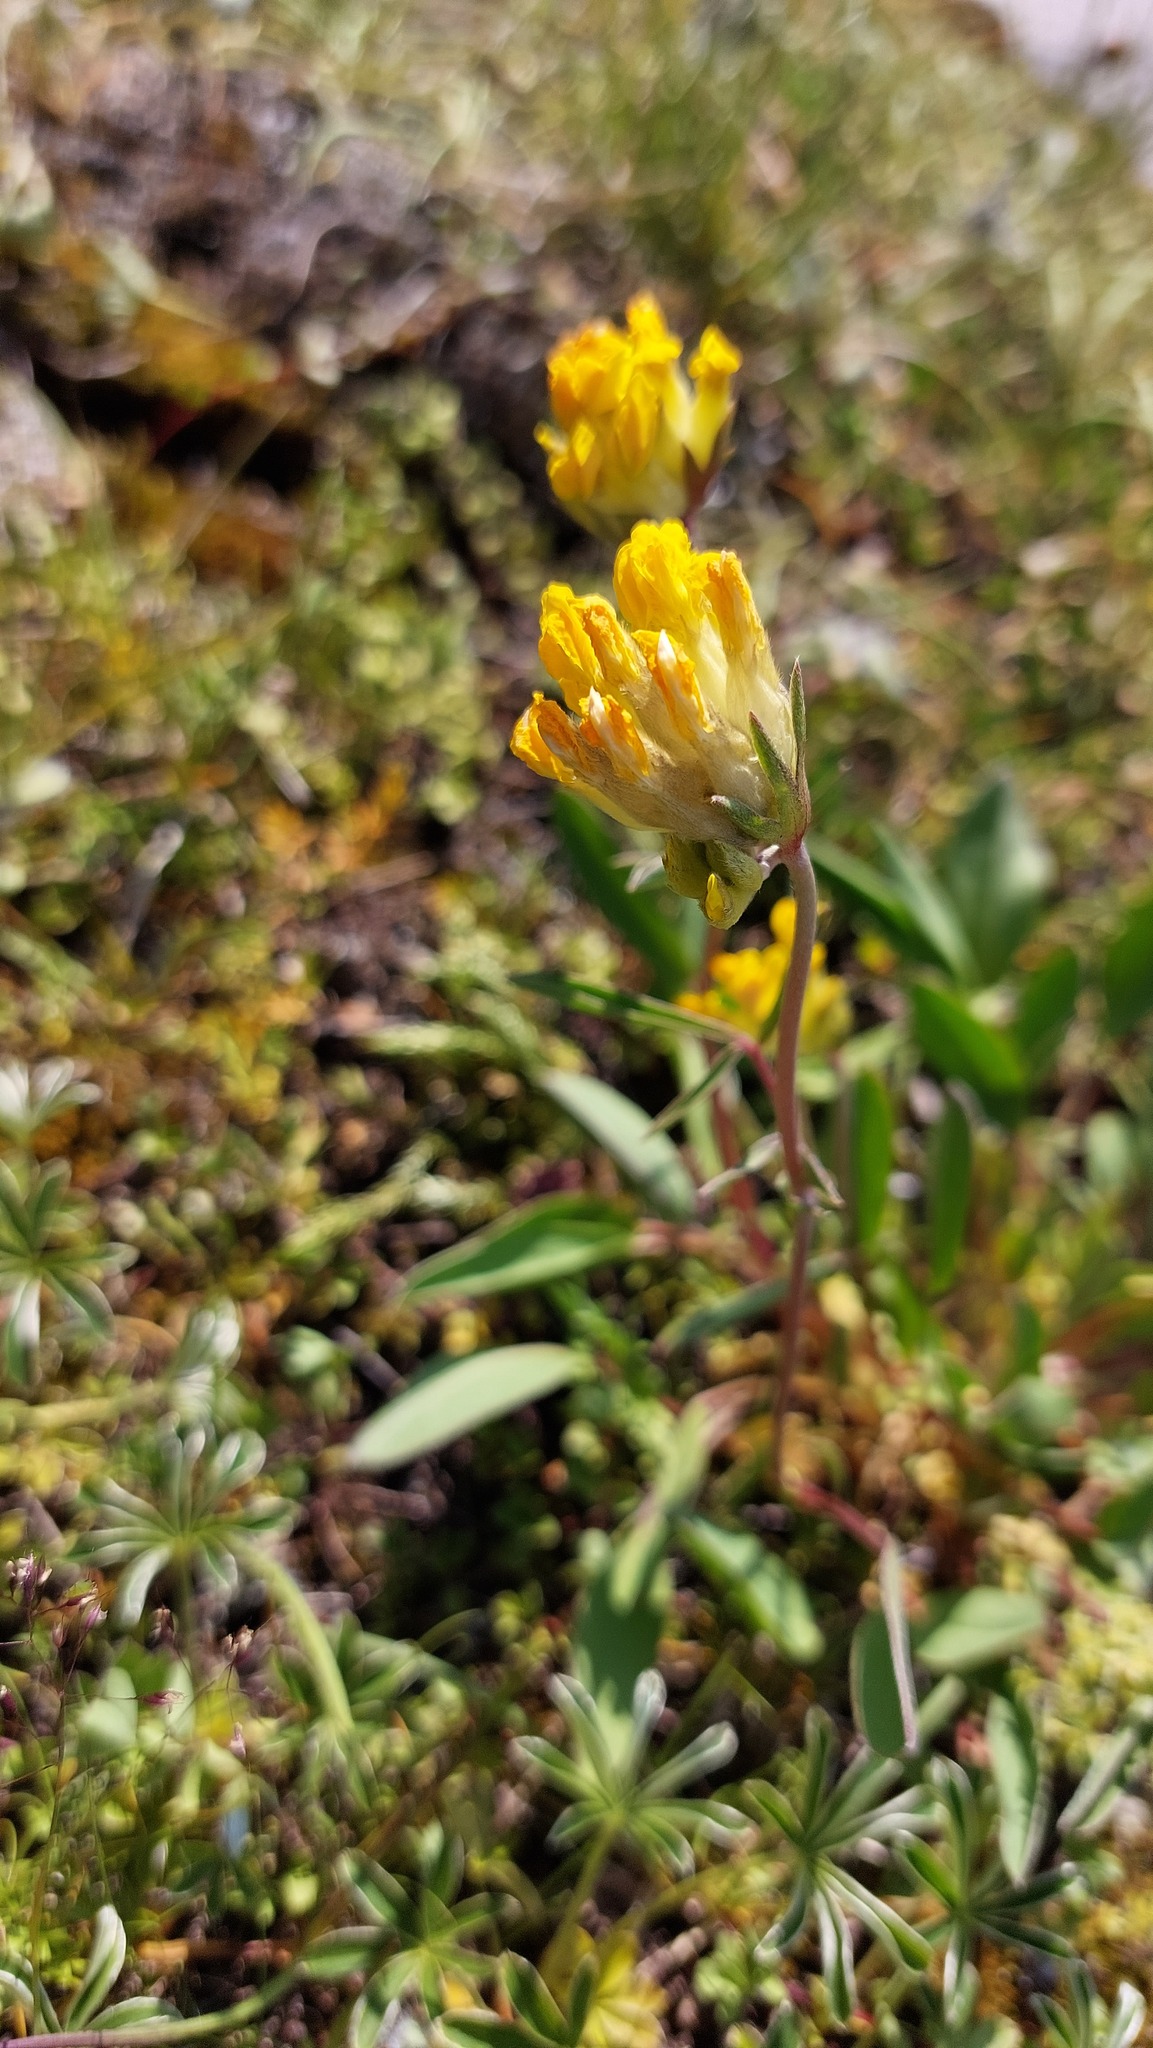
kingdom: Plantae
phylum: Tracheophyta
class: Magnoliopsida
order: Fabales
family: Fabaceae
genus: Anthyllis
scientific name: Anthyllis vulneraria
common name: Kidney vetch
